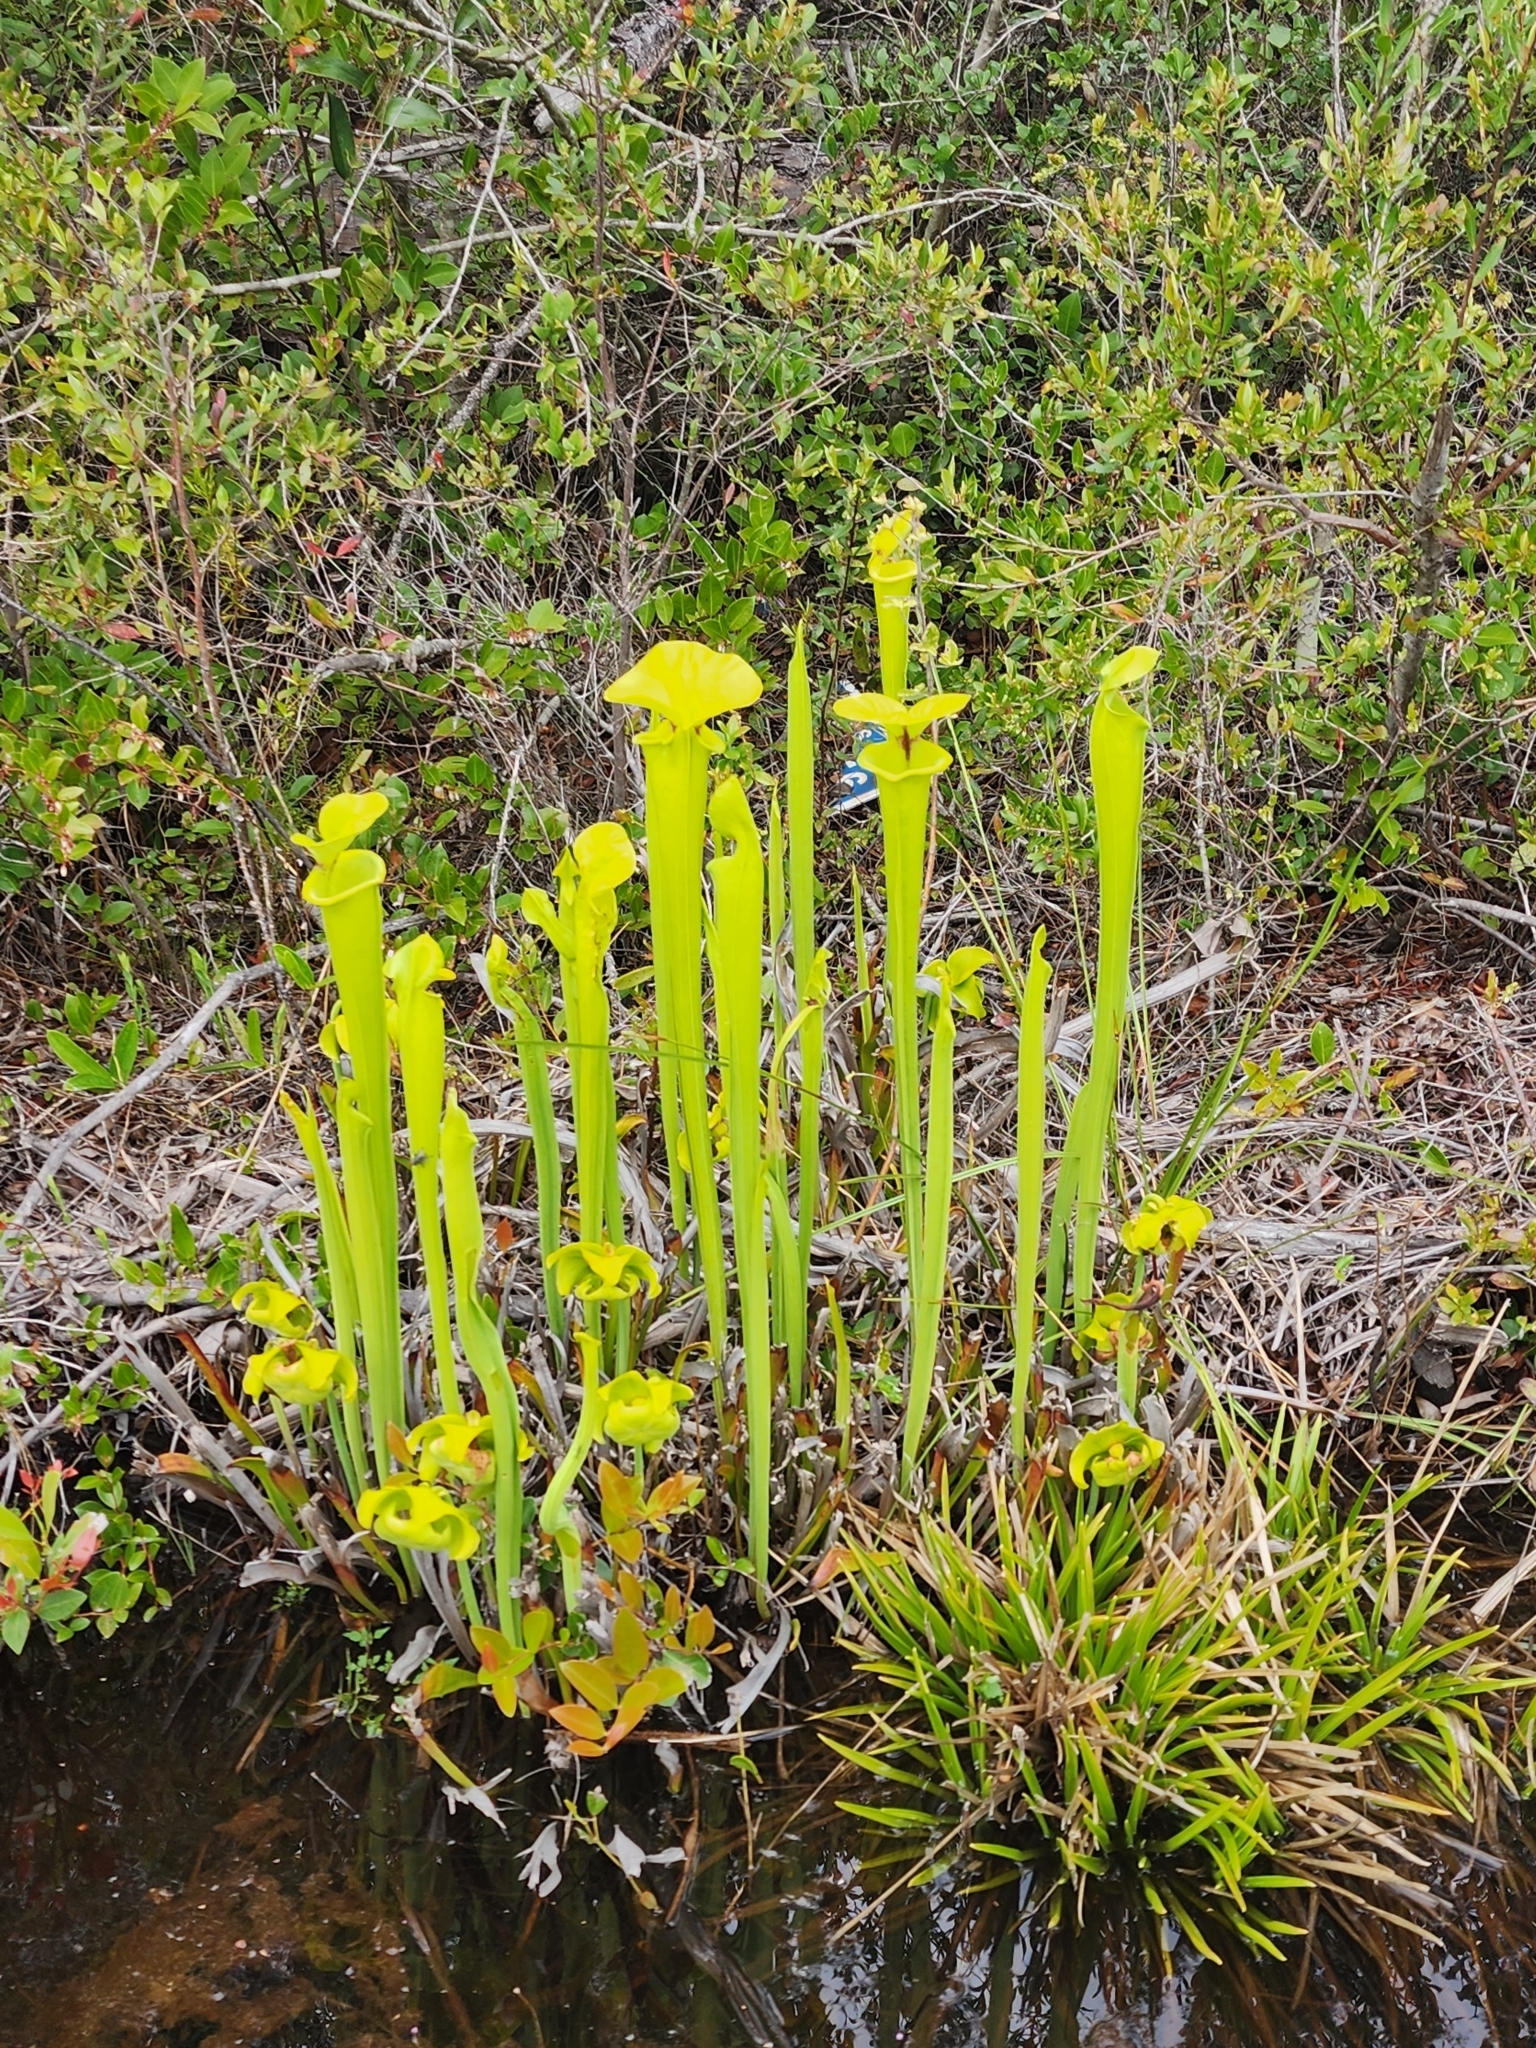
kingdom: Plantae
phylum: Tracheophyta
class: Magnoliopsida
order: Ericales
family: Sarraceniaceae
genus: Sarracenia
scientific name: Sarracenia flava
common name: Trumpets
